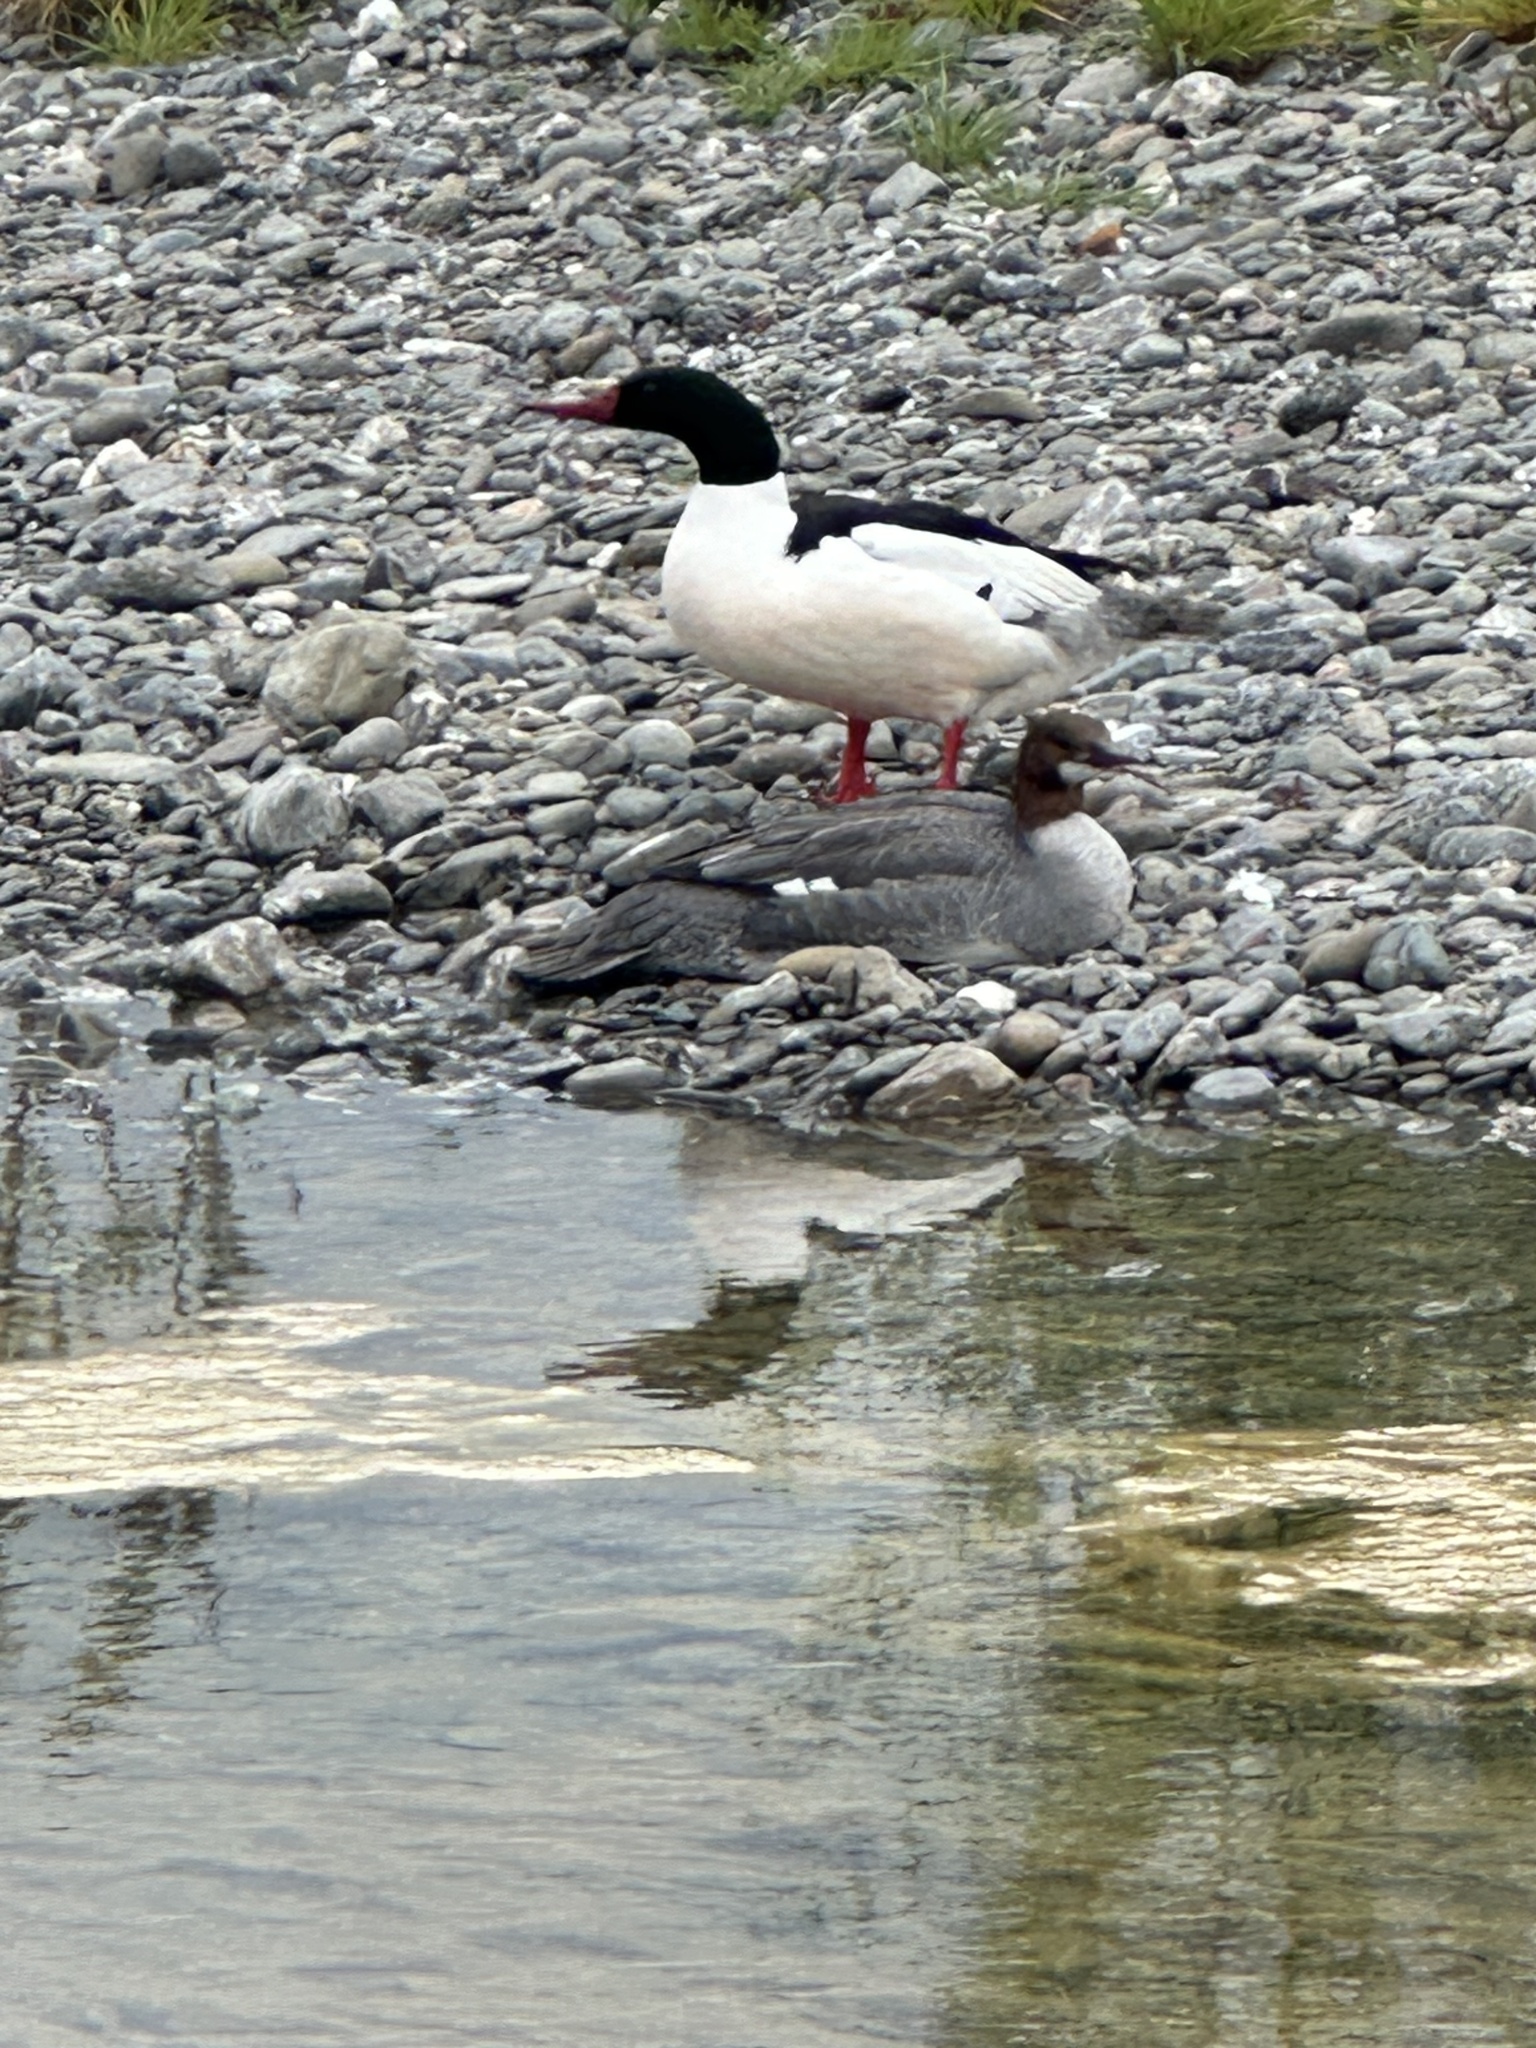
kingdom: Animalia
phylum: Chordata
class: Aves
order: Anseriformes
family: Anatidae
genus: Mergus
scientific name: Mergus merganser
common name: Common merganser
